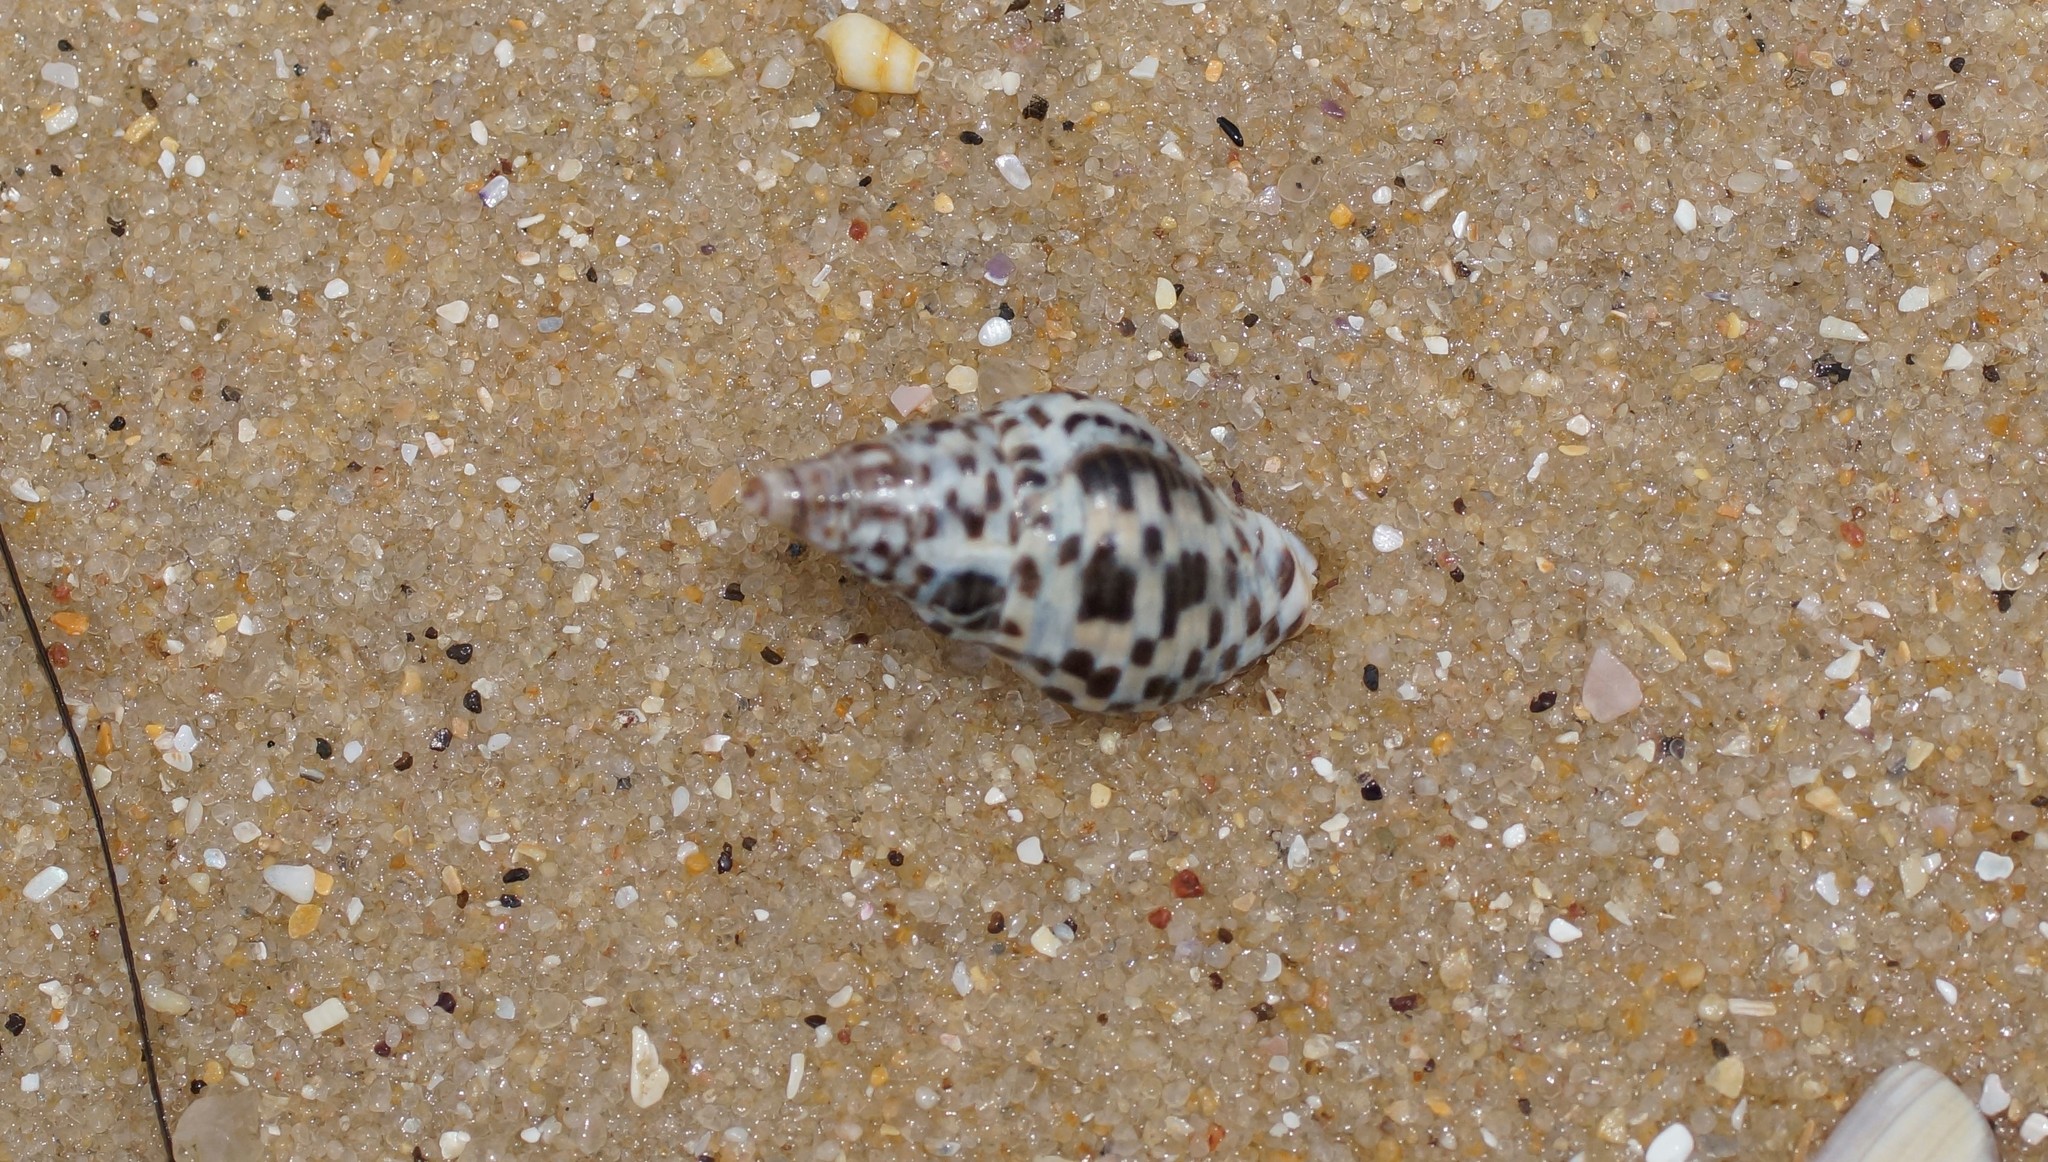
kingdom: Animalia
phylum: Mollusca
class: Gastropoda
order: Neogastropoda
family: Cominellidae
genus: Cominella
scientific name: Cominella lineolata
